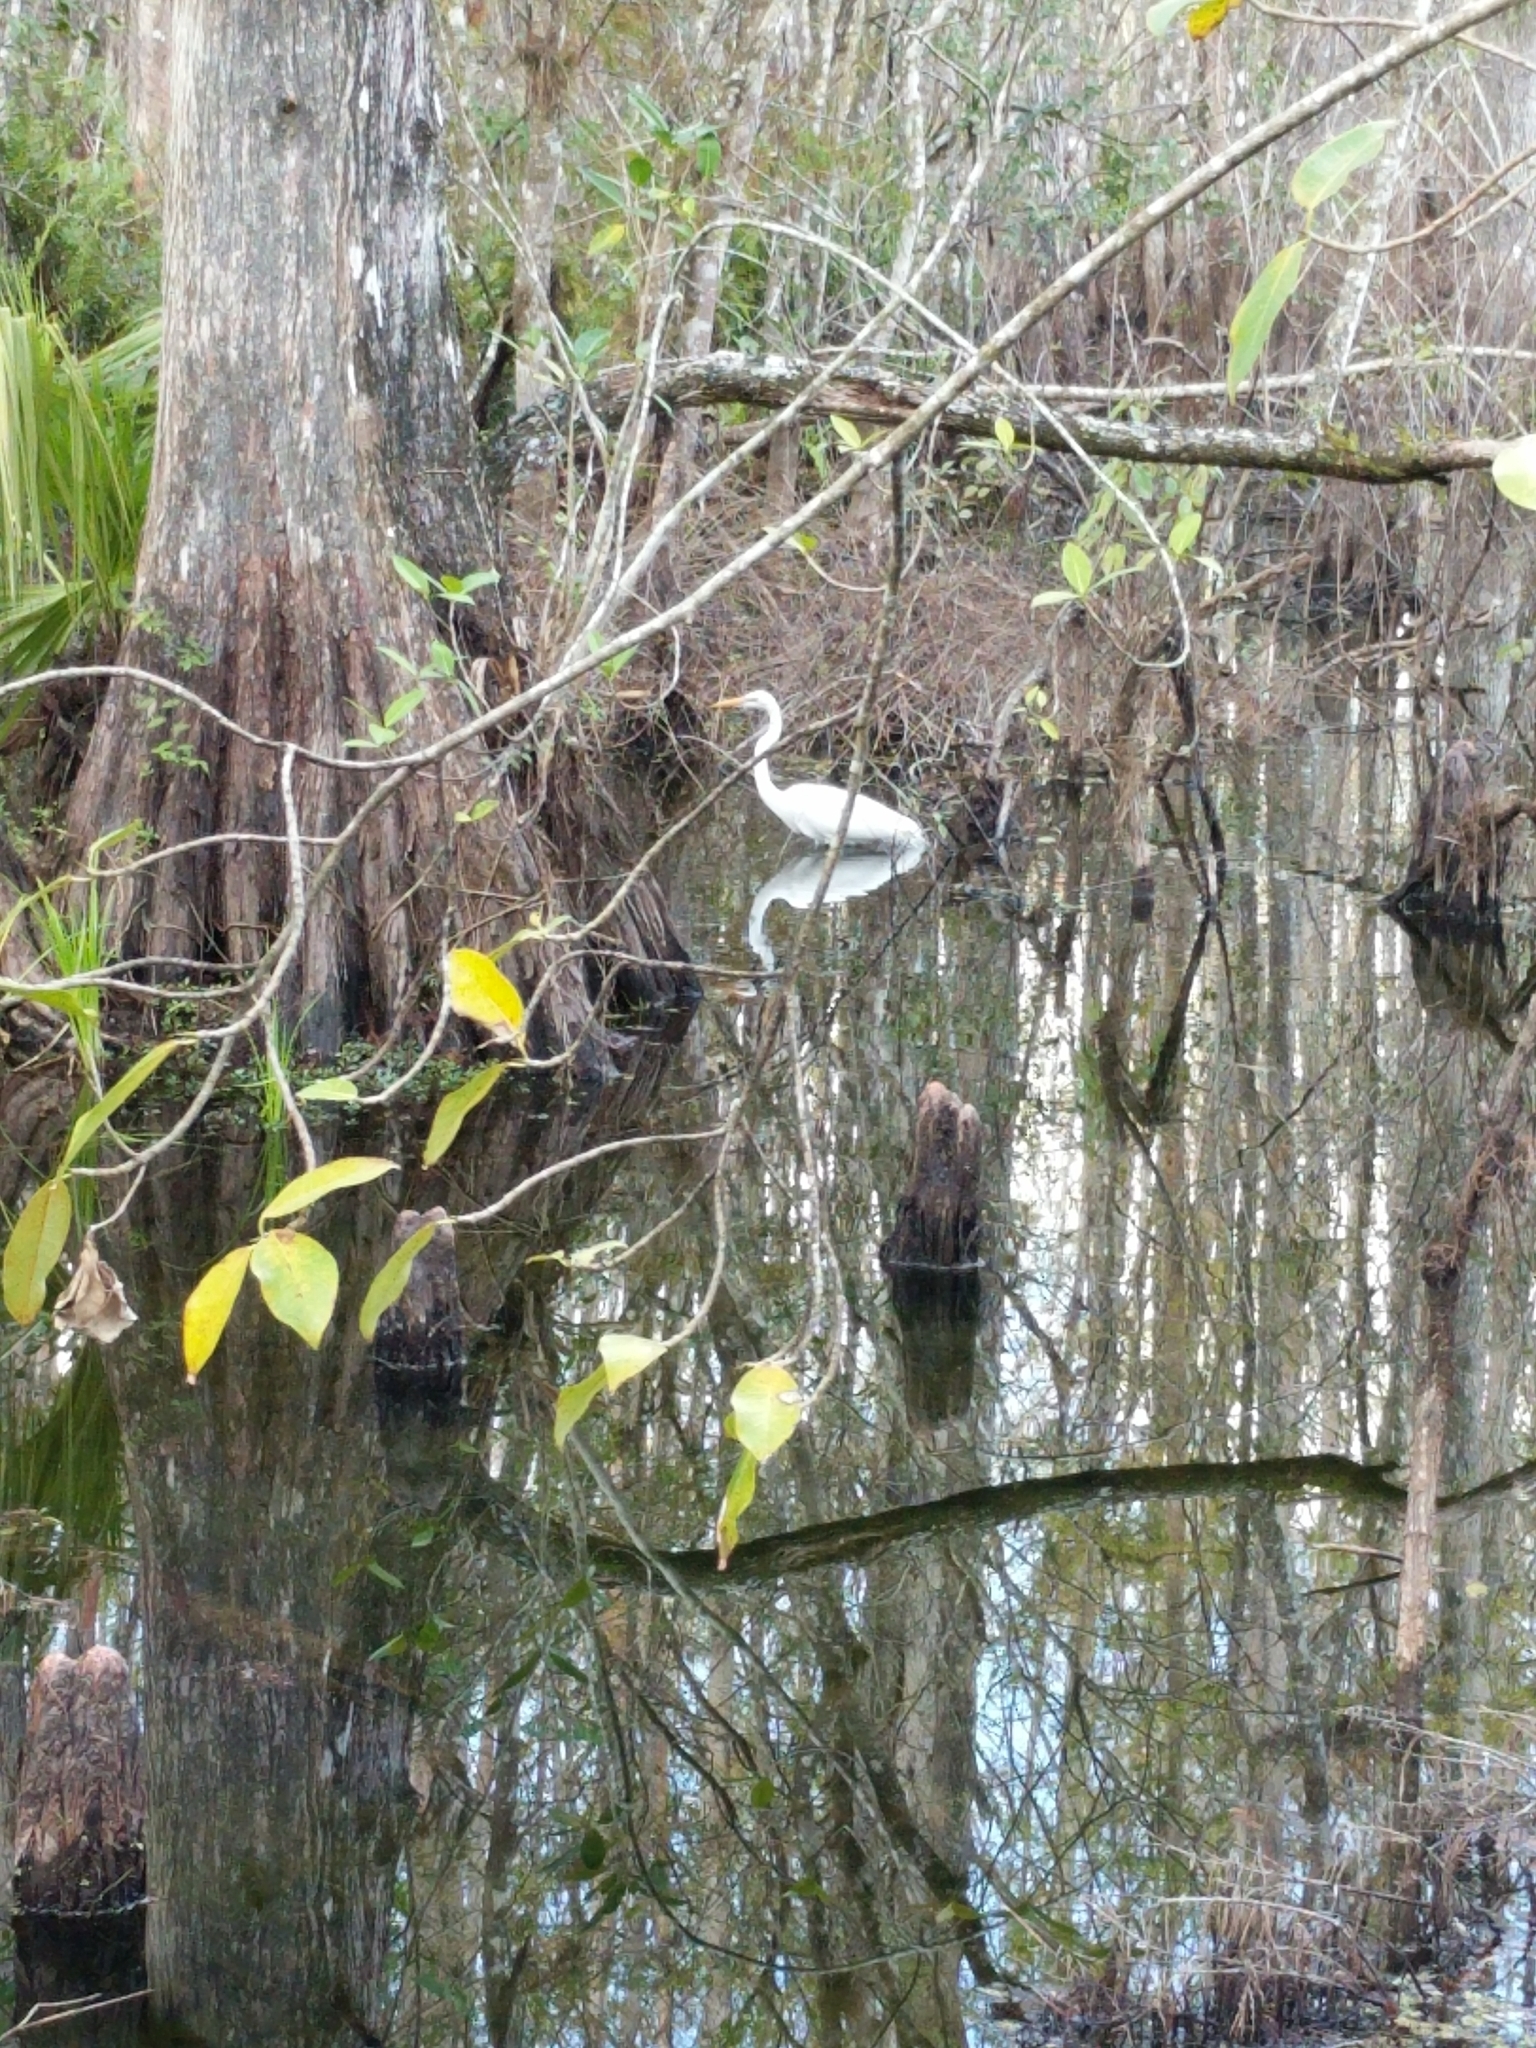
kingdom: Animalia
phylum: Chordata
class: Aves
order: Pelecaniformes
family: Ardeidae
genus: Ardea
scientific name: Ardea alba
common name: Great egret
